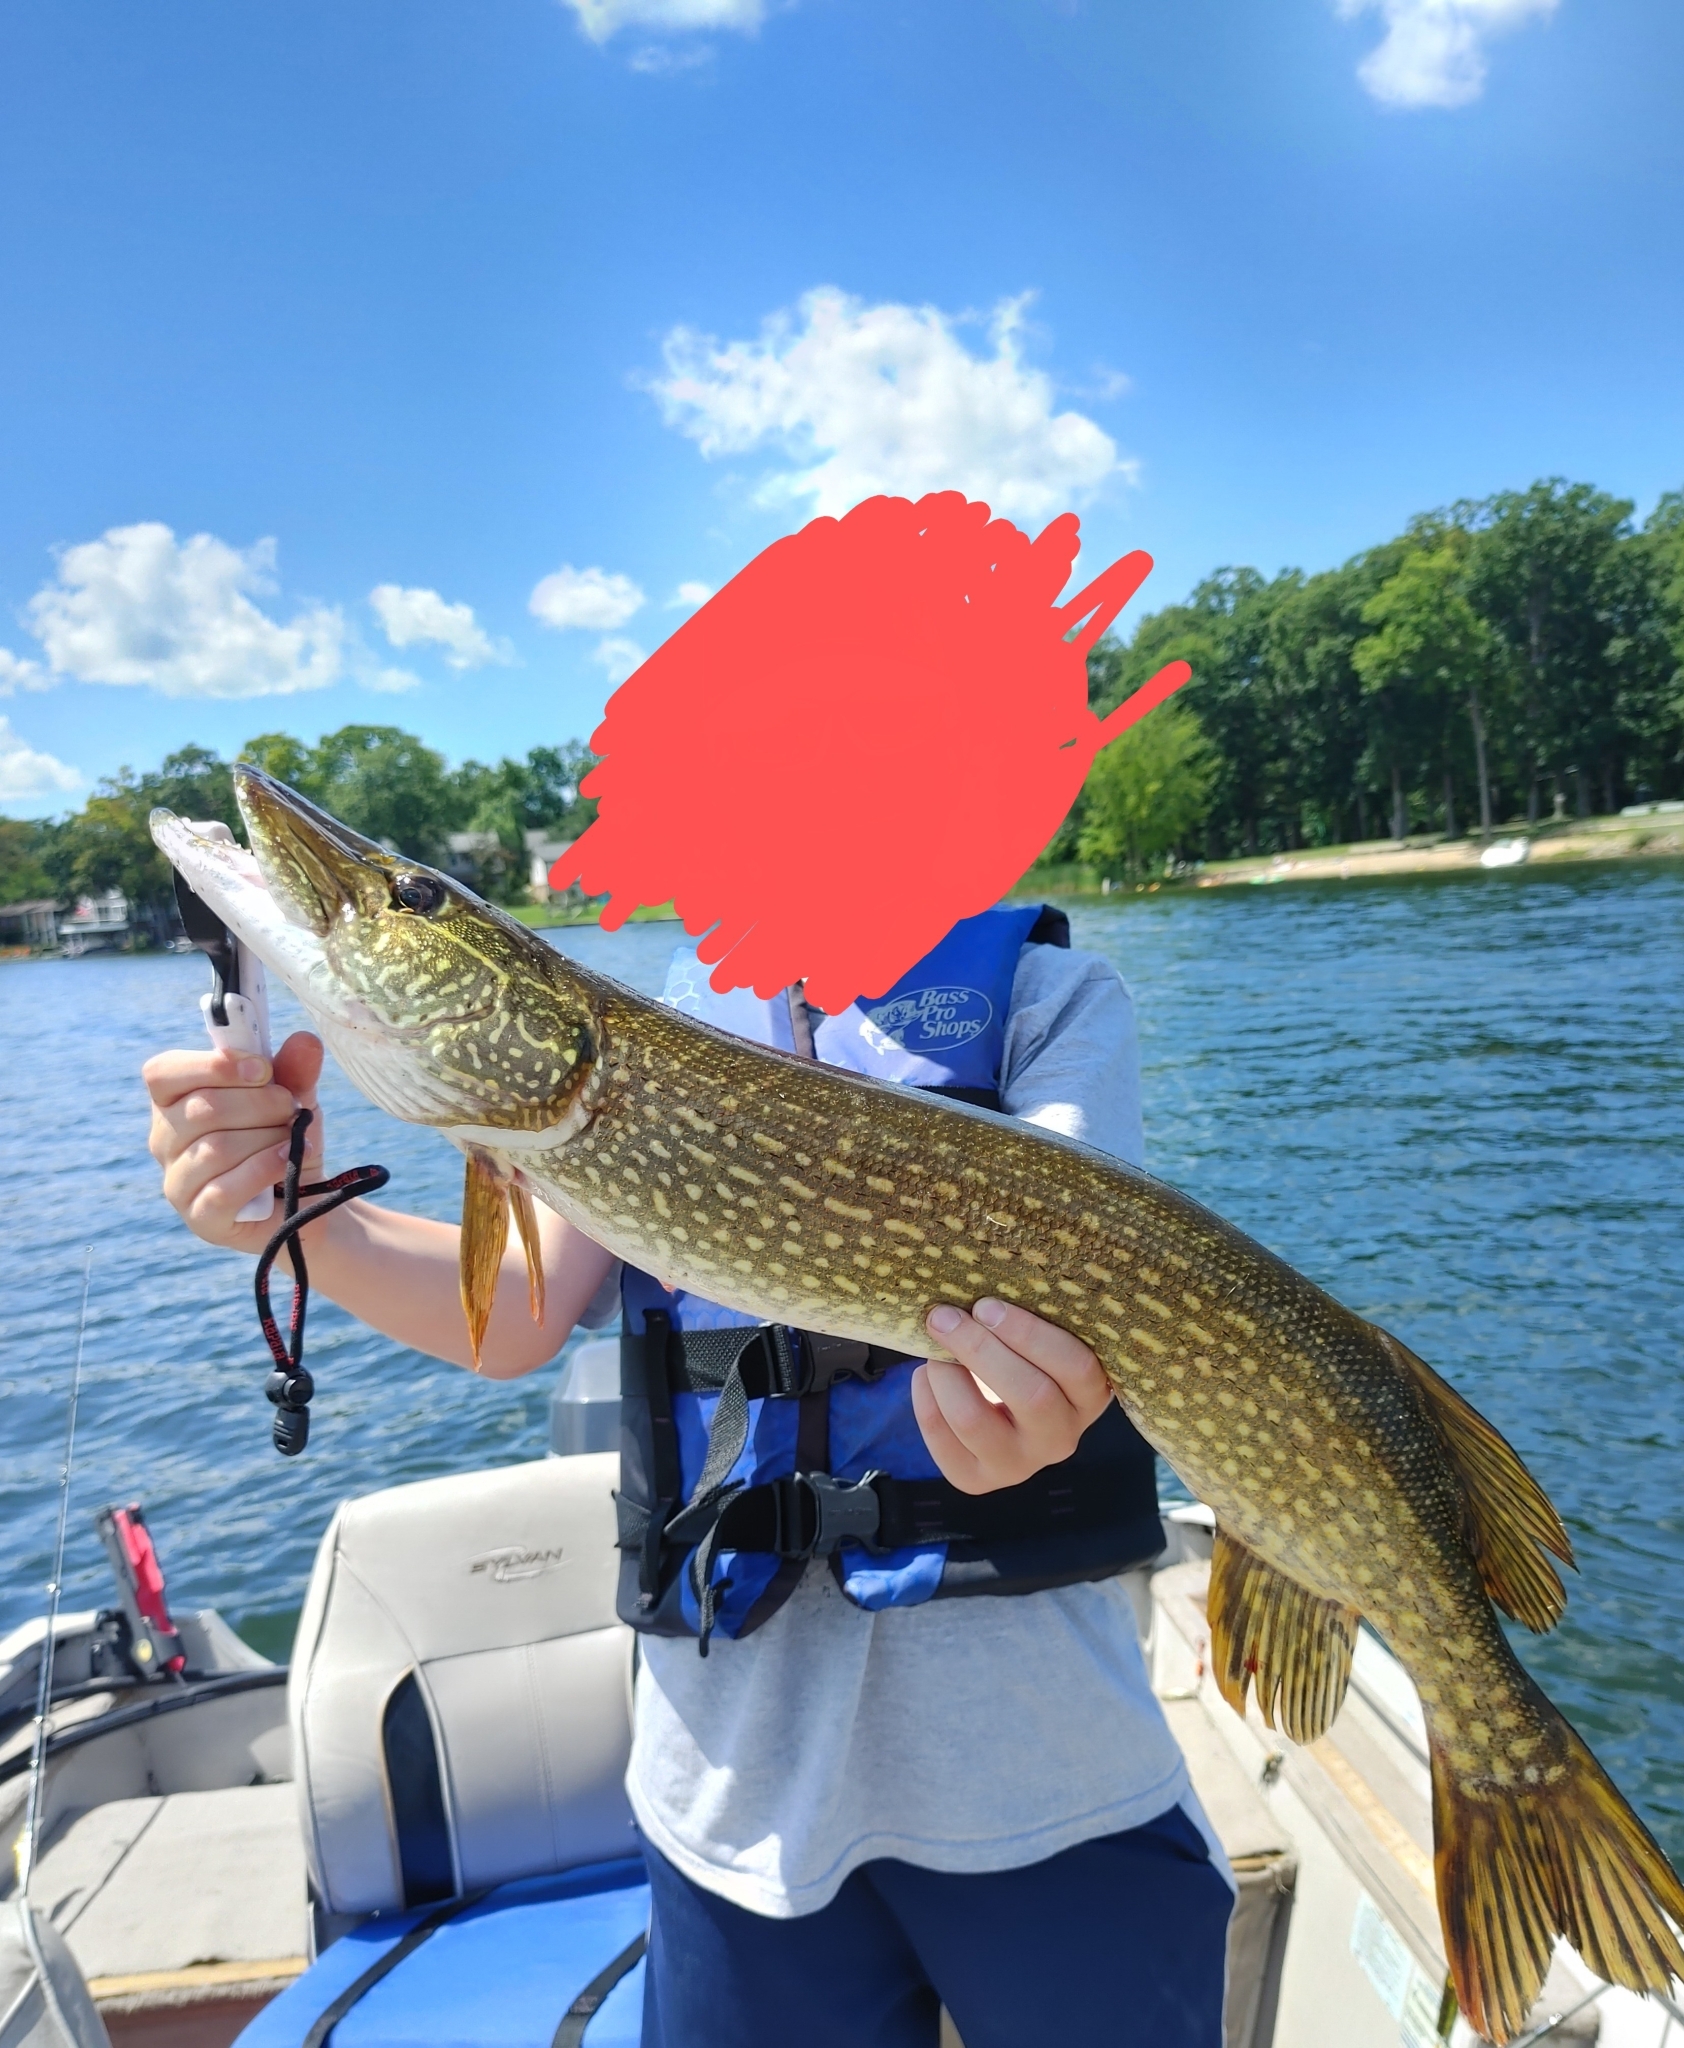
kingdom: Animalia
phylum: Chordata
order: Esociformes
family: Esocidae
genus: Esox
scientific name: Esox lucius
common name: Northern pike
